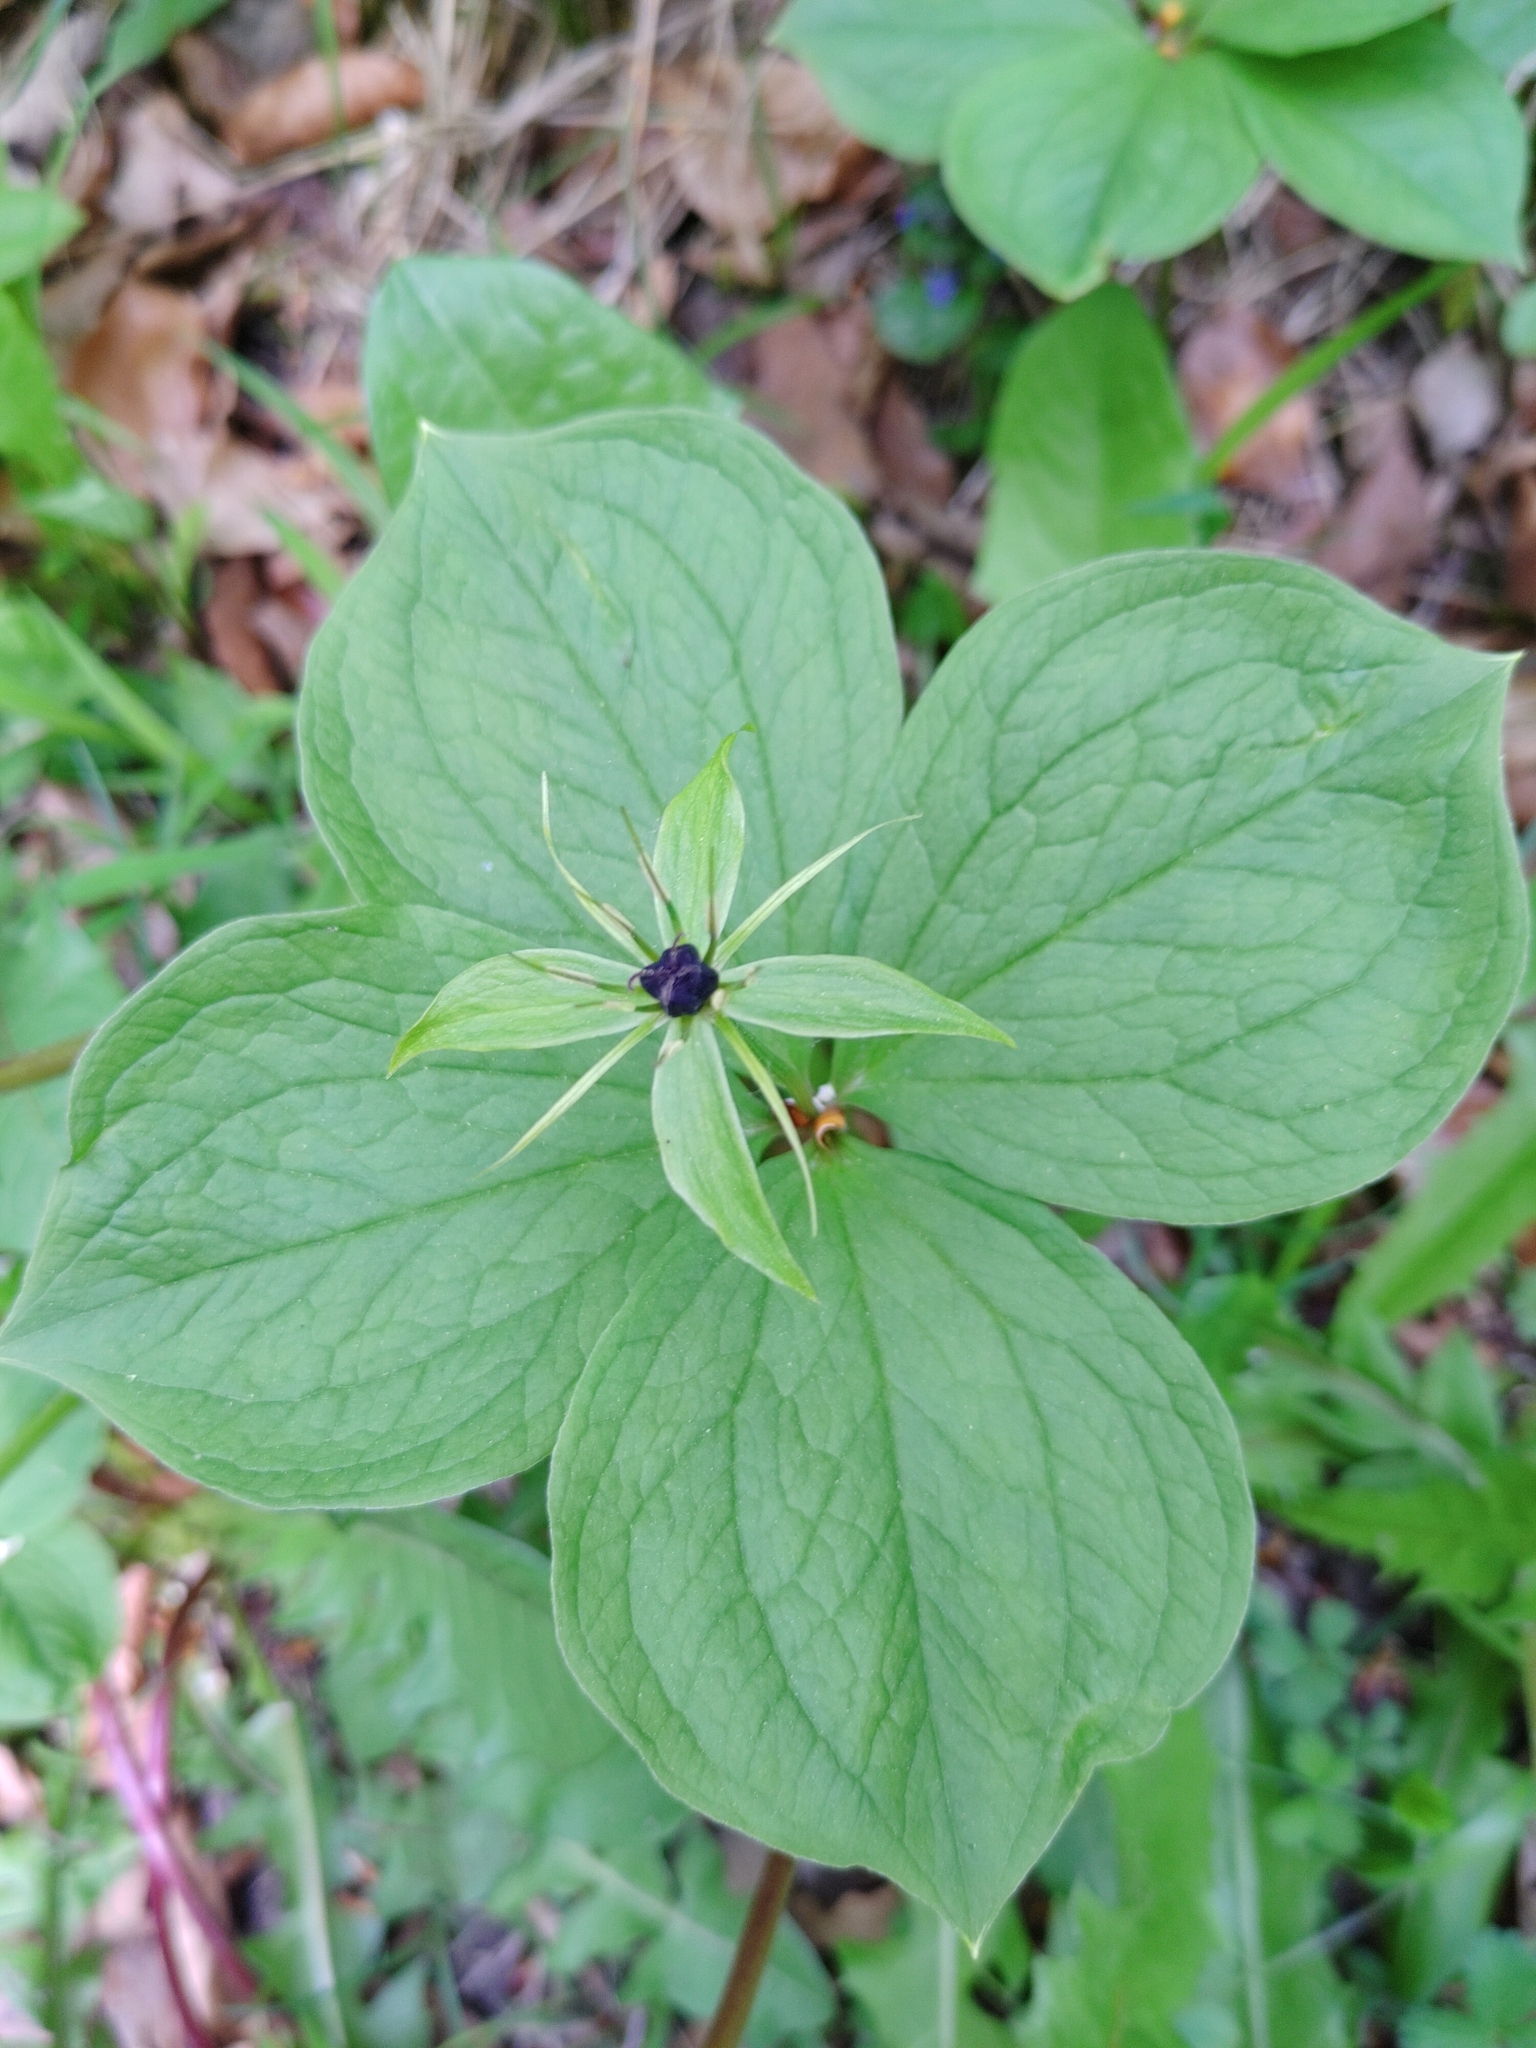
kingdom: Plantae
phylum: Tracheophyta
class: Liliopsida
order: Liliales
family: Melanthiaceae
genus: Paris
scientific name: Paris quadrifolia
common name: Herb-paris
